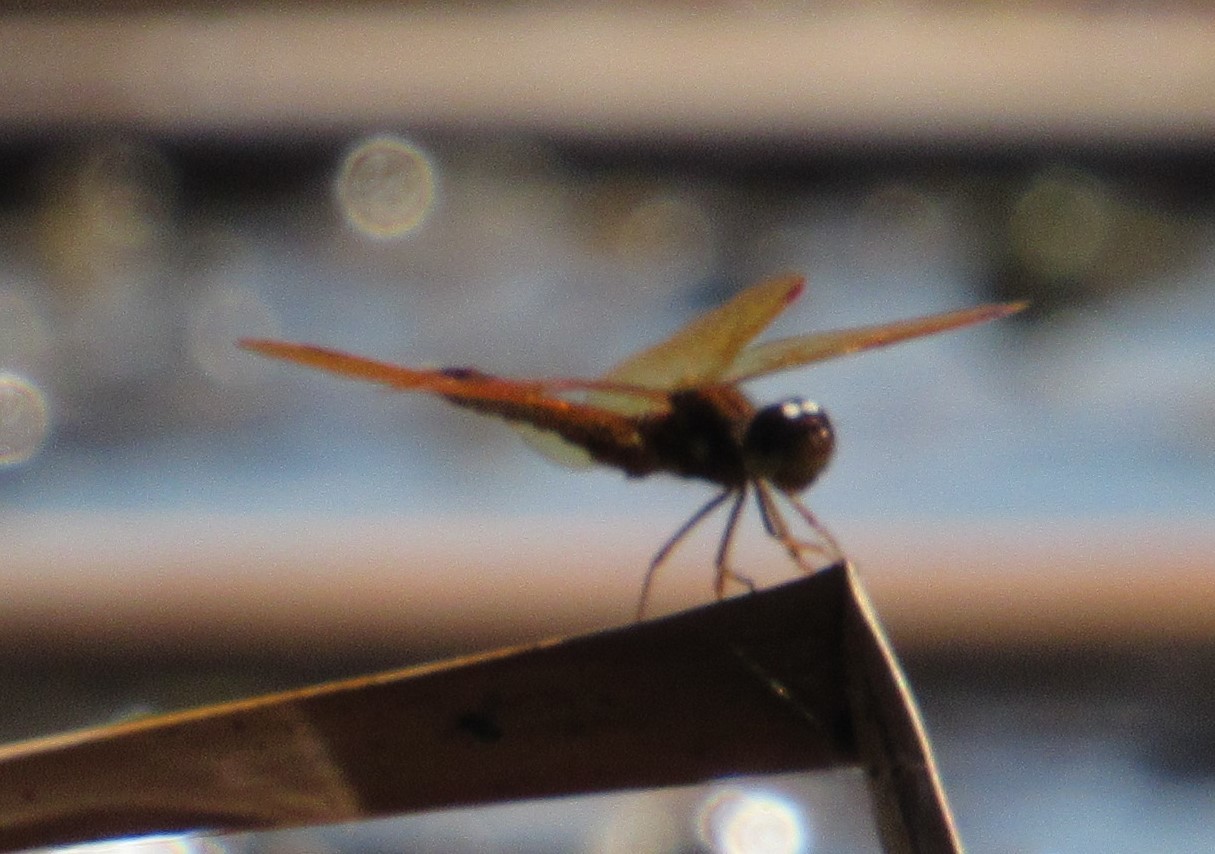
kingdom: Animalia
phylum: Arthropoda
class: Insecta
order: Odonata
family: Libellulidae
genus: Perithemis
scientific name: Perithemis tenera
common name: Eastern amberwing
